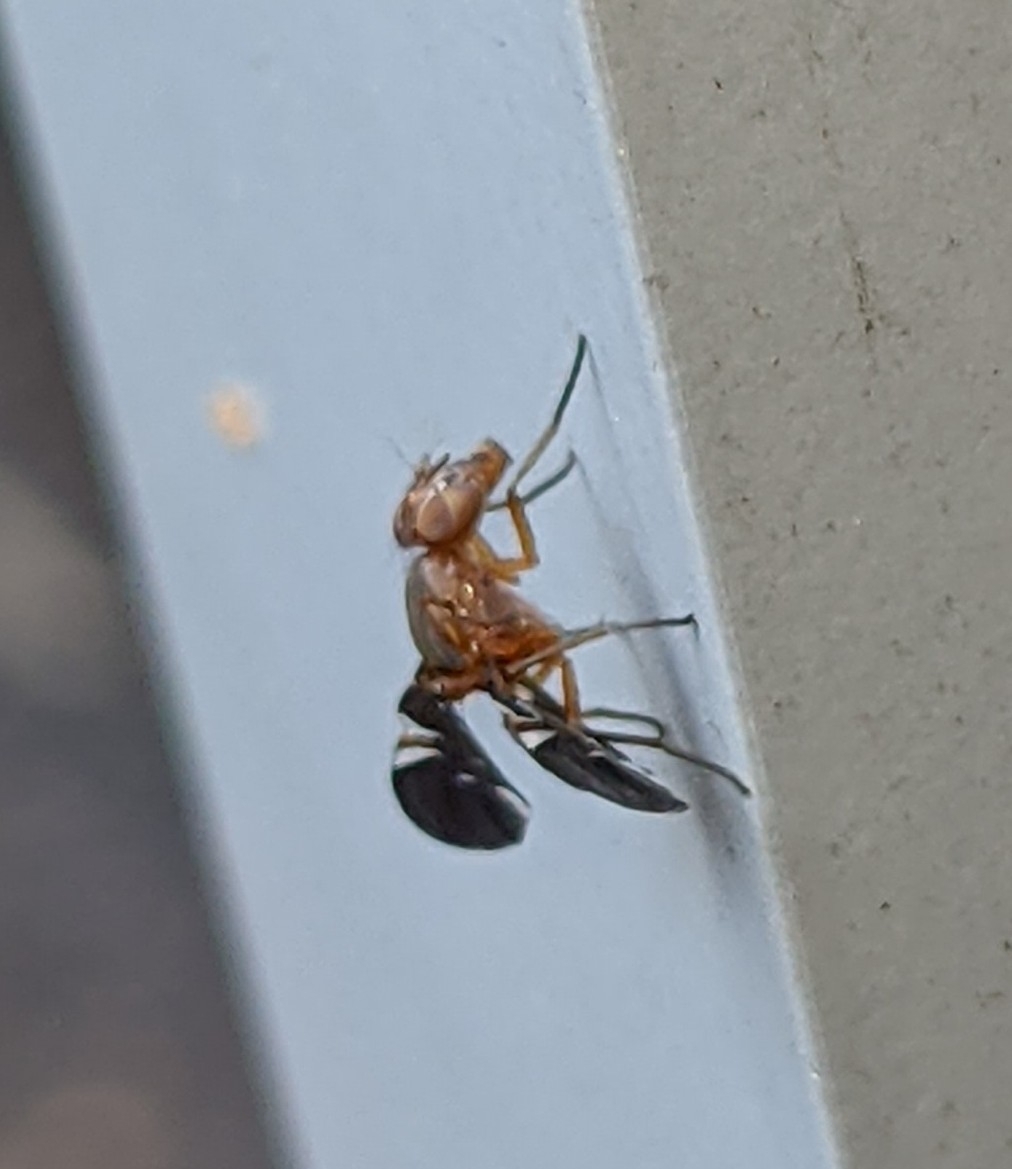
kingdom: Animalia
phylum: Arthropoda
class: Insecta
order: Diptera
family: Ulidiidae
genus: Delphinia
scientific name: Delphinia picta
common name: Common picture-winged fly
